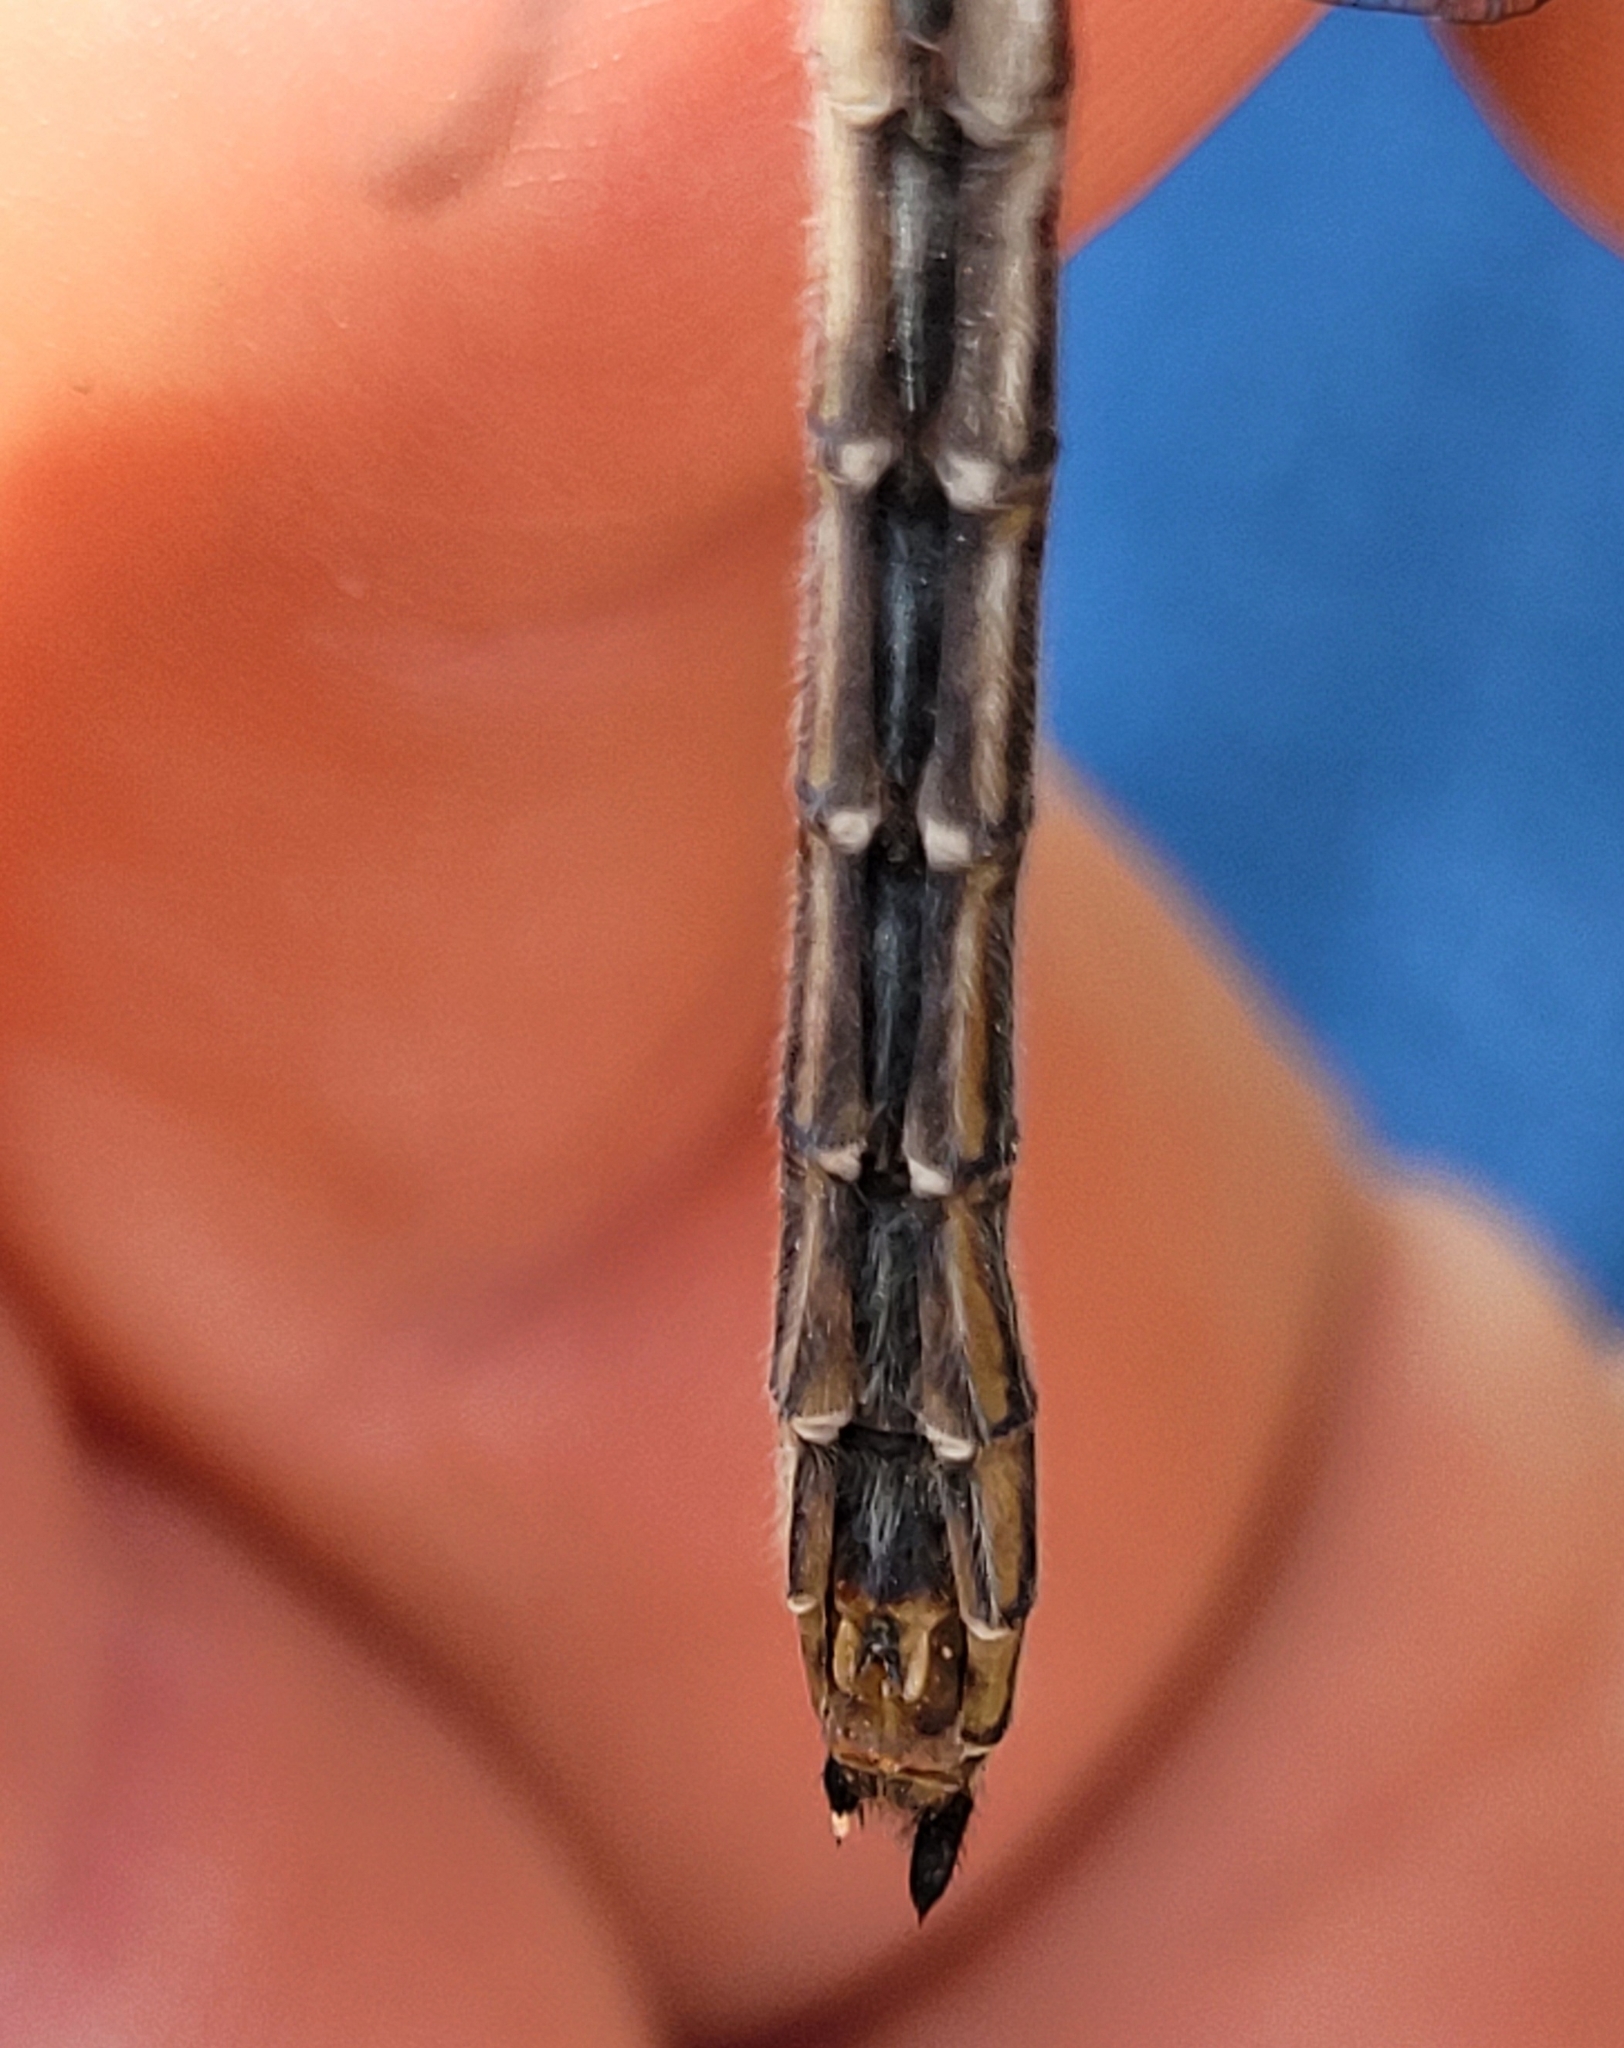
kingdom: Animalia
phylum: Arthropoda
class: Insecta
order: Odonata
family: Corduliidae
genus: Cordulia
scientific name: Cordulia shurtleffii
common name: American emerald
